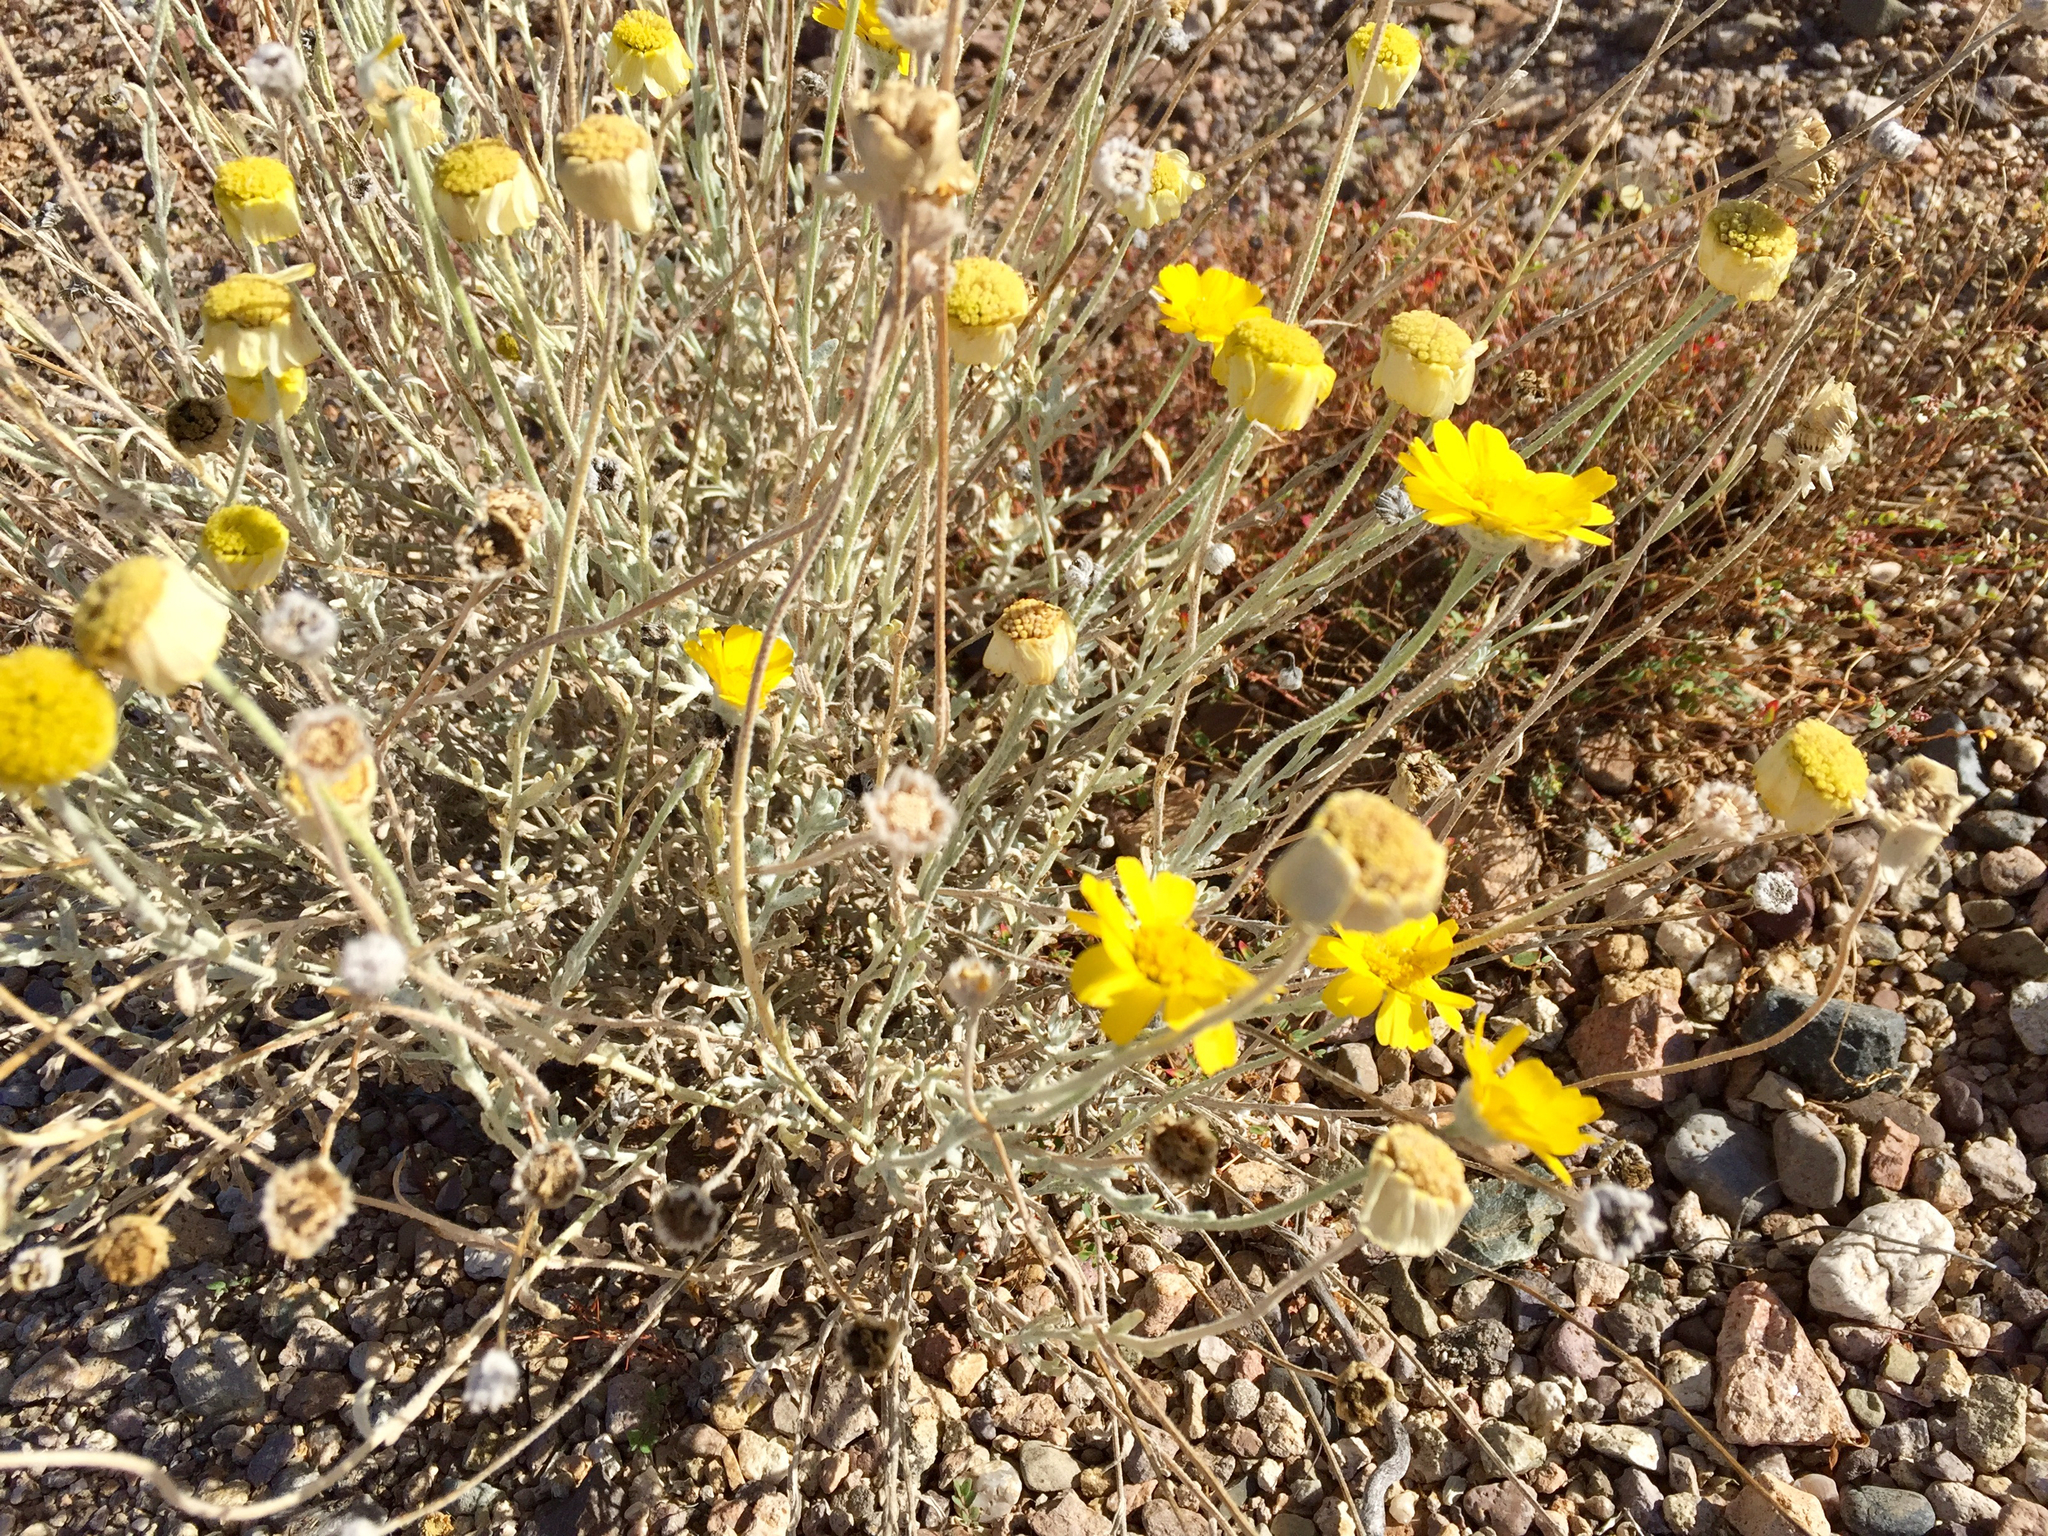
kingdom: Plantae
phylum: Tracheophyta
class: Magnoliopsida
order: Asterales
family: Asteraceae
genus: Baileya
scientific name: Baileya multiradiata
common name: Desert-marigold
